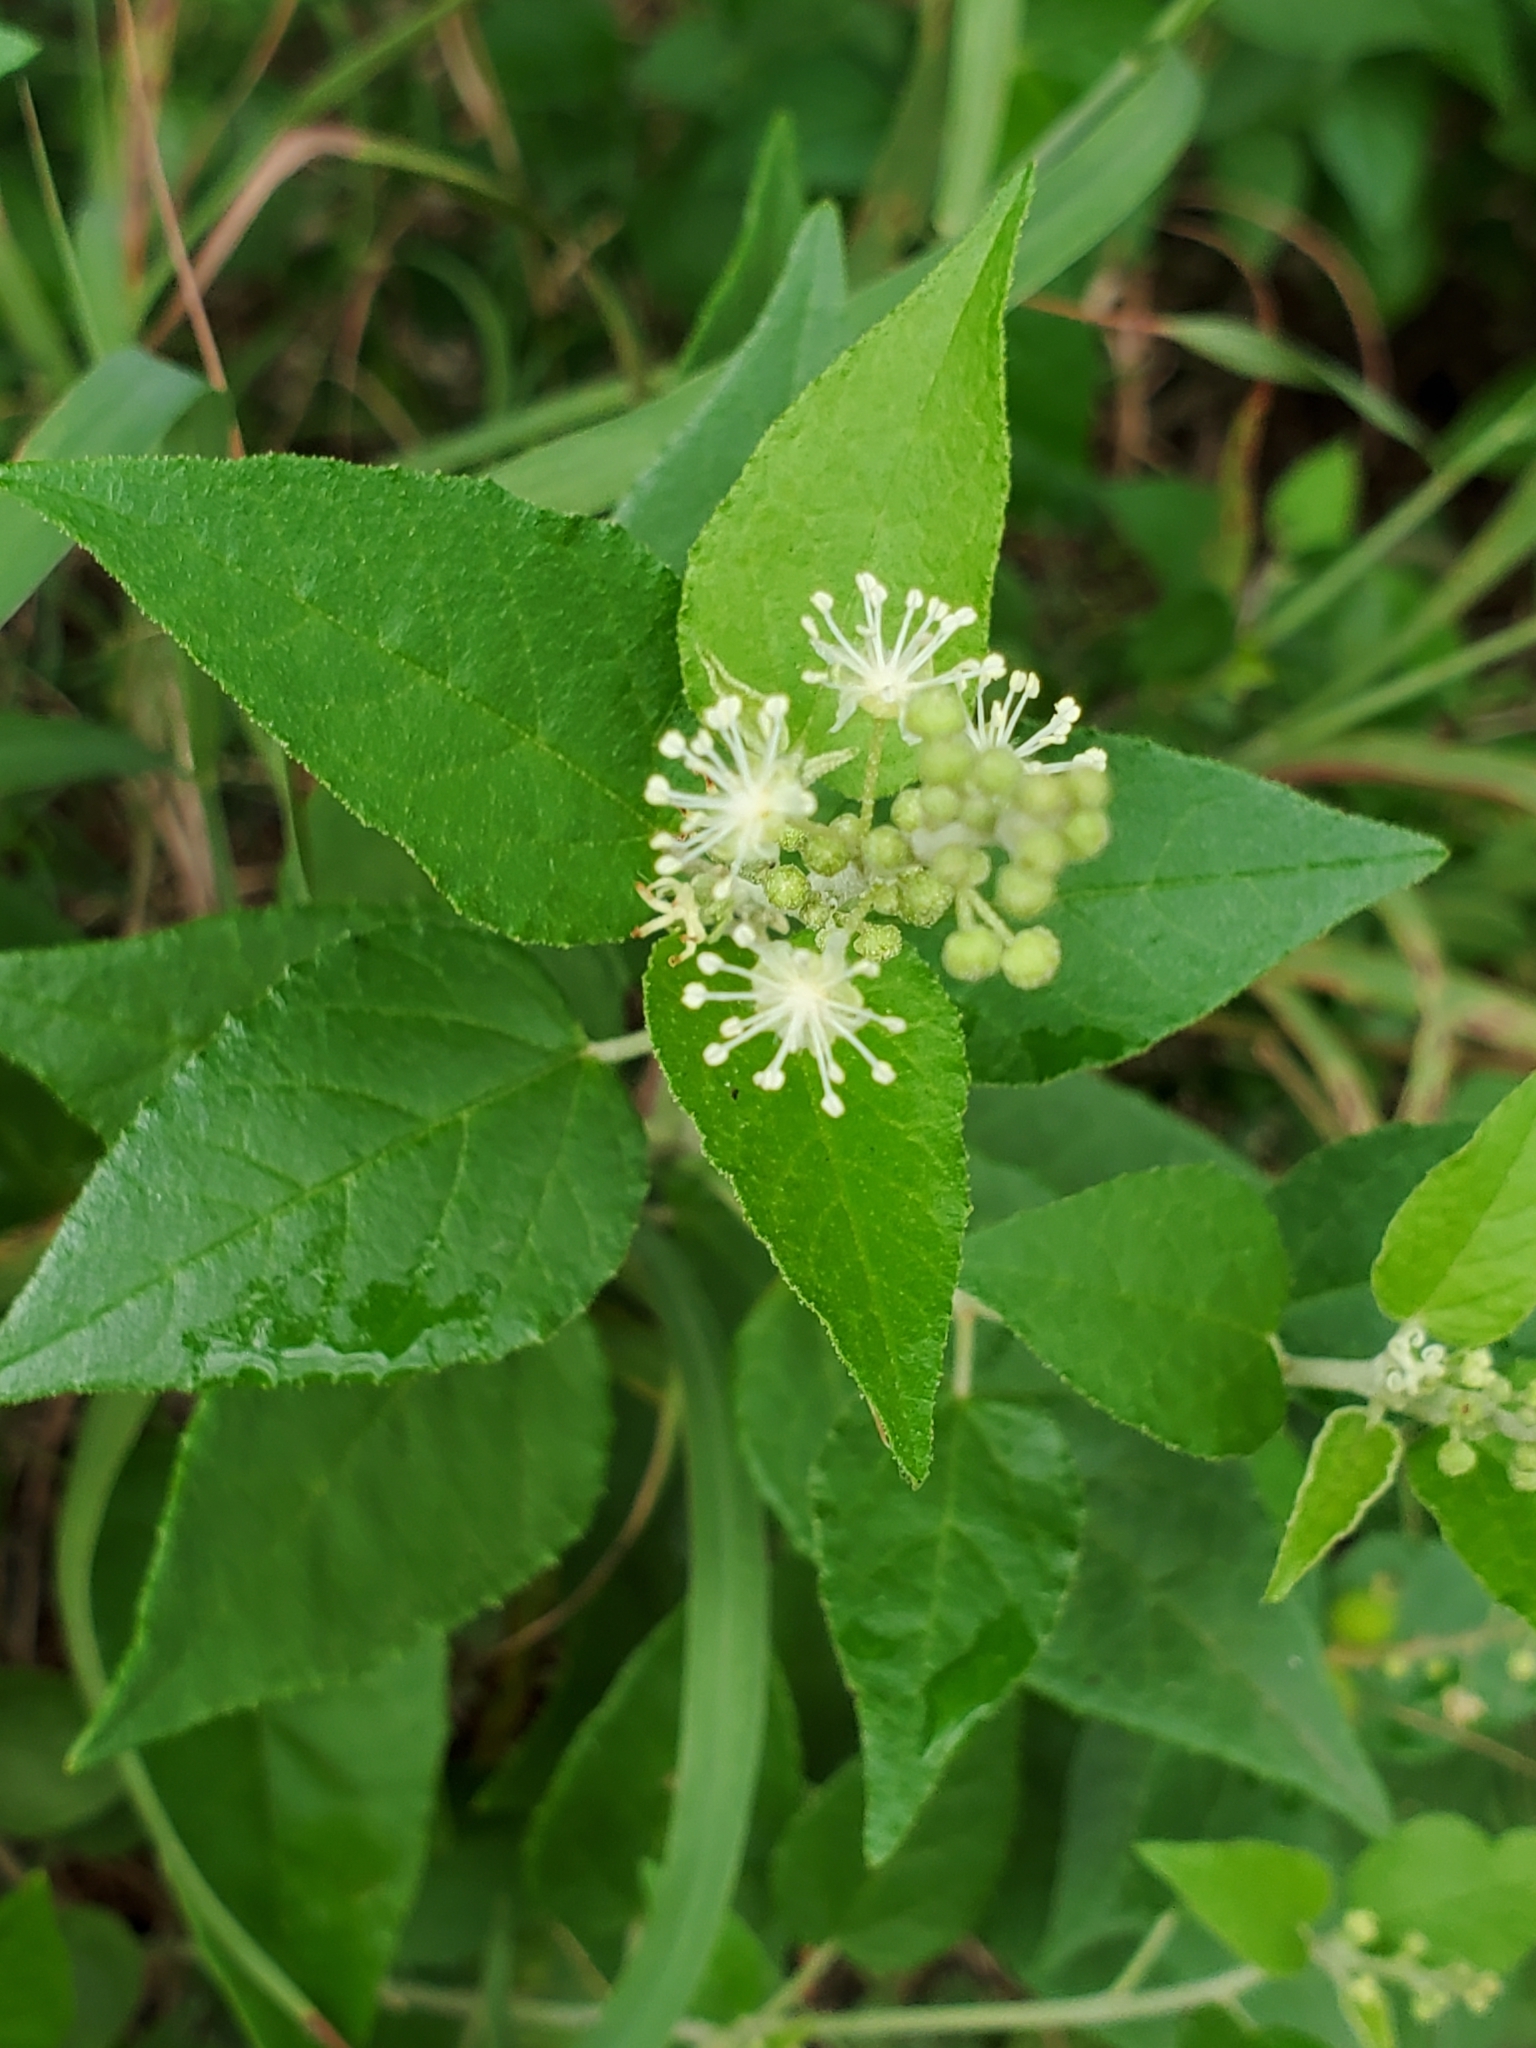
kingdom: Plantae
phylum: Tracheophyta
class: Magnoliopsida
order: Malpighiales
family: Euphorbiaceae
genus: Croton
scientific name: Croton fruticulosus
